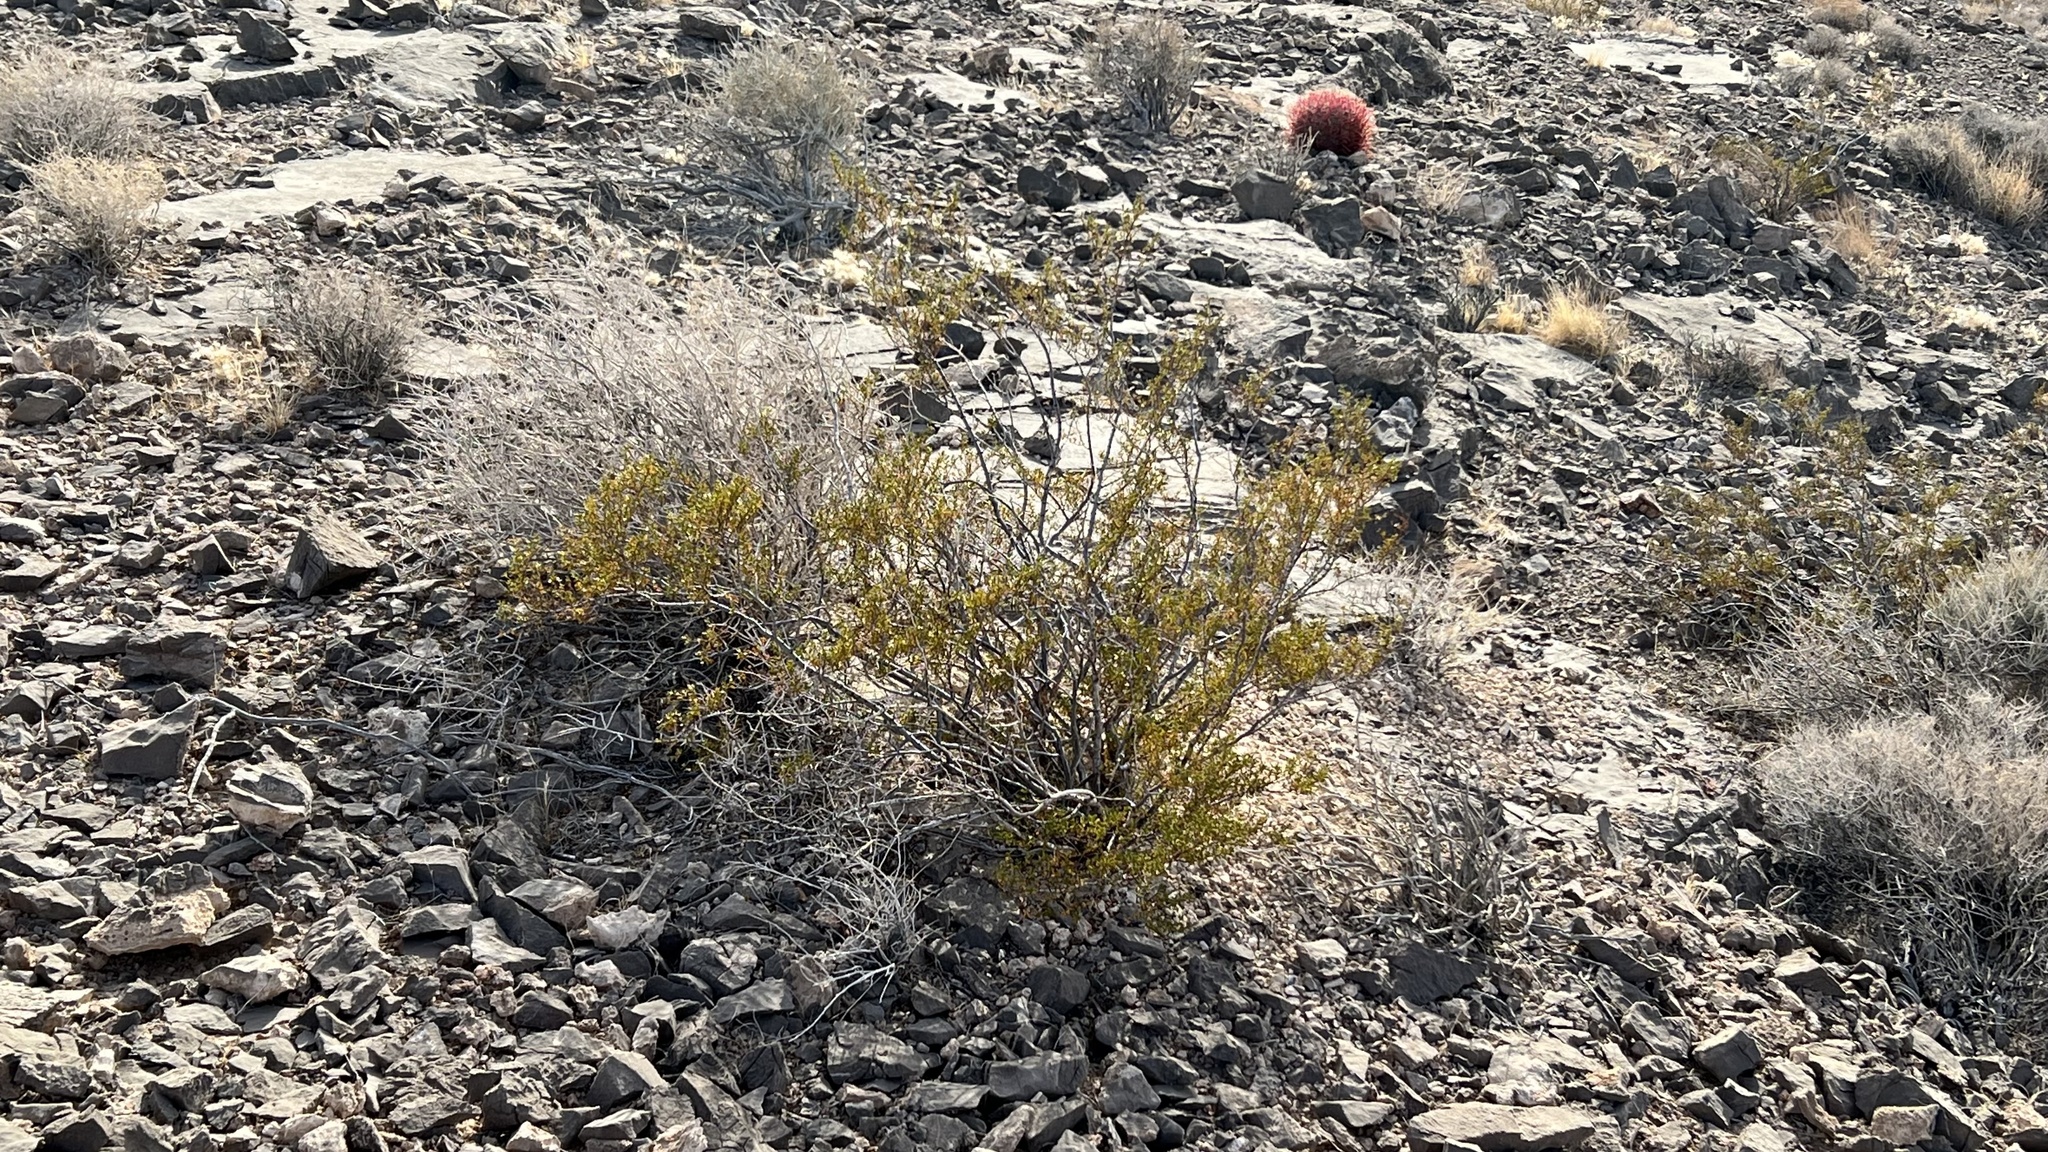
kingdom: Plantae
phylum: Tracheophyta
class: Magnoliopsida
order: Zygophyllales
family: Zygophyllaceae
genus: Larrea
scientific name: Larrea tridentata
